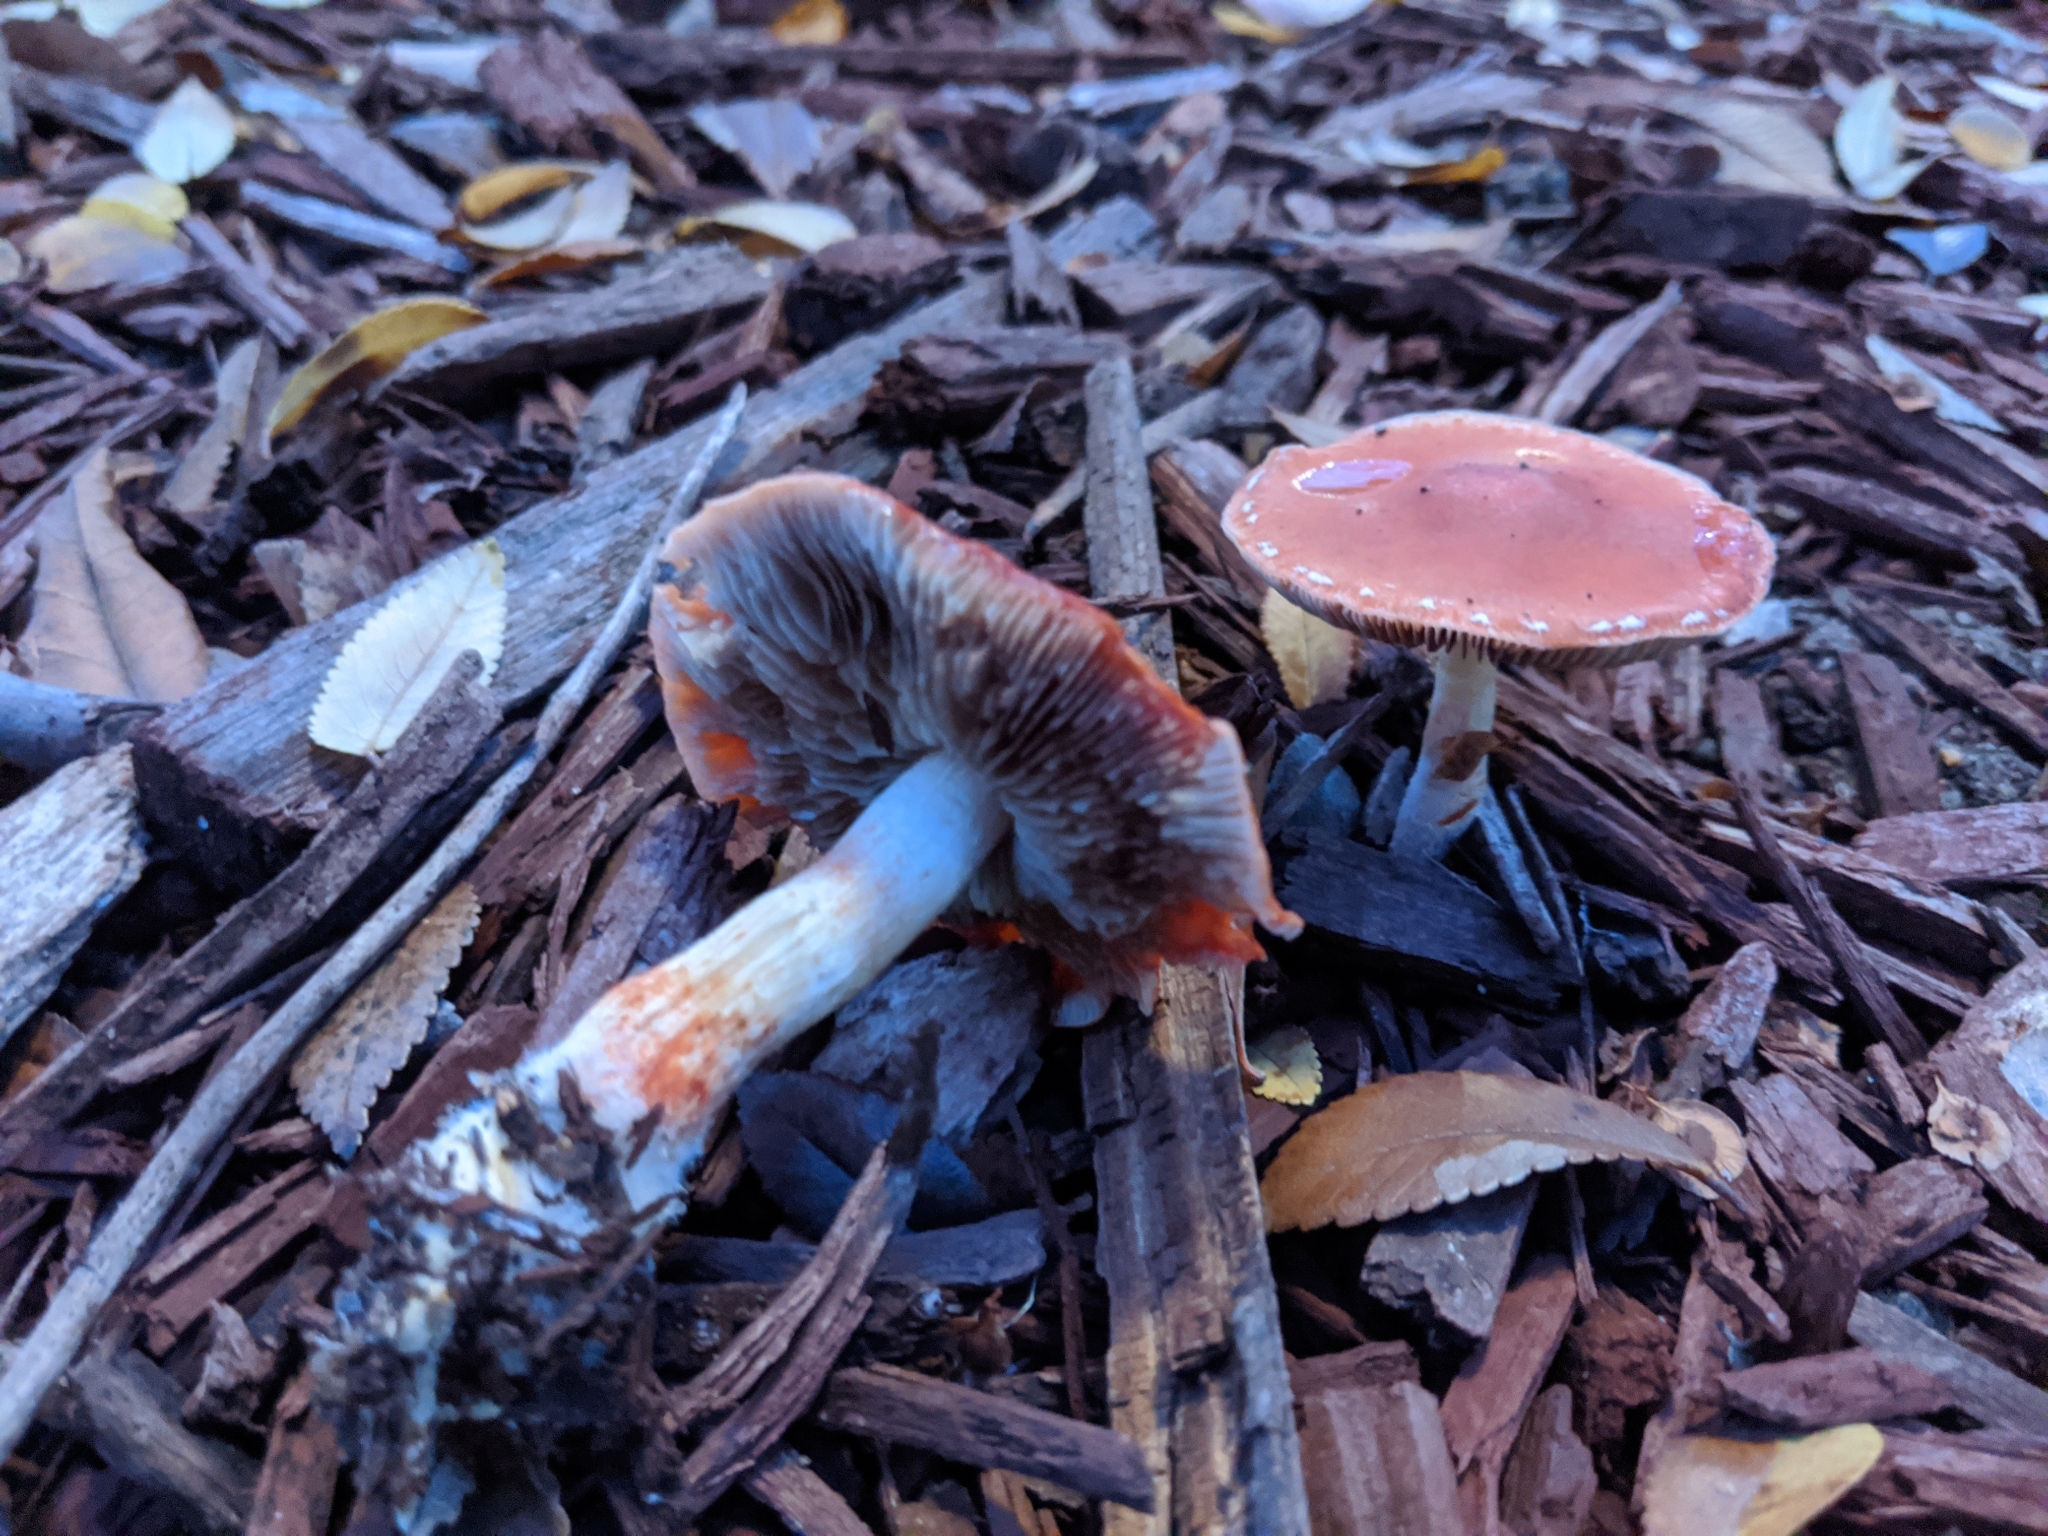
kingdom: Fungi
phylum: Basidiomycota
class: Agaricomycetes
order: Agaricales
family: Strophariaceae
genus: Leratiomyces
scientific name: Leratiomyces ceres
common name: Redlead roundhead
